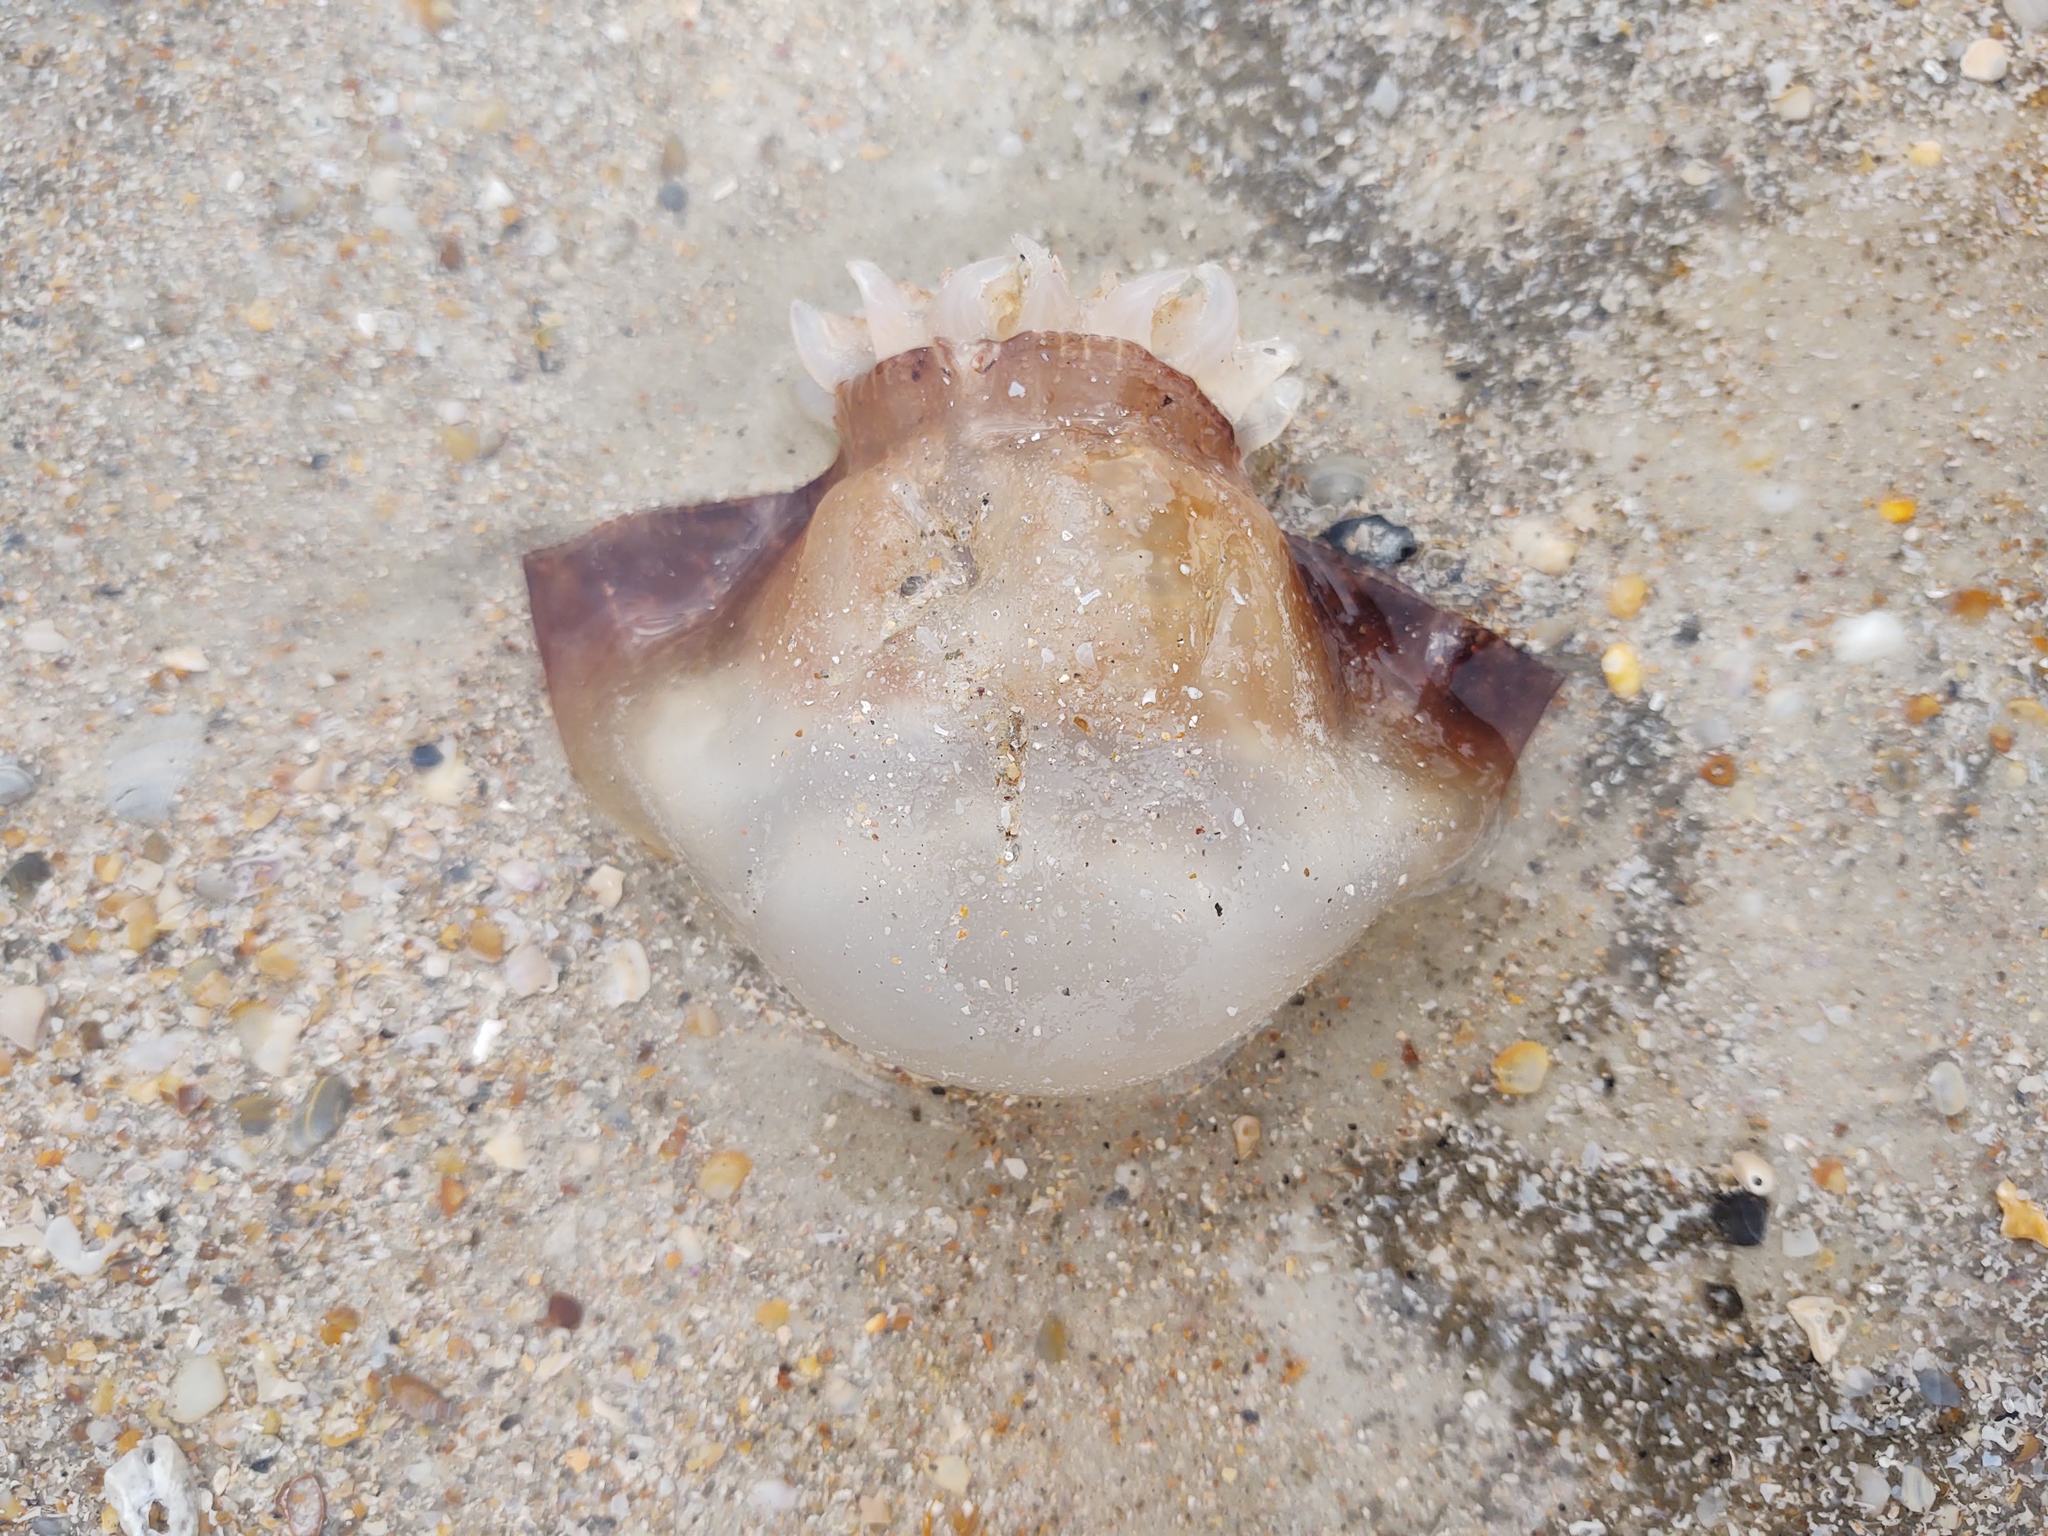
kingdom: Animalia
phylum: Cnidaria
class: Scyphozoa
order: Rhizostomeae
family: Stomolophidae
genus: Stomolophus
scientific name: Stomolophus meleagris
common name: Cabbagehead
